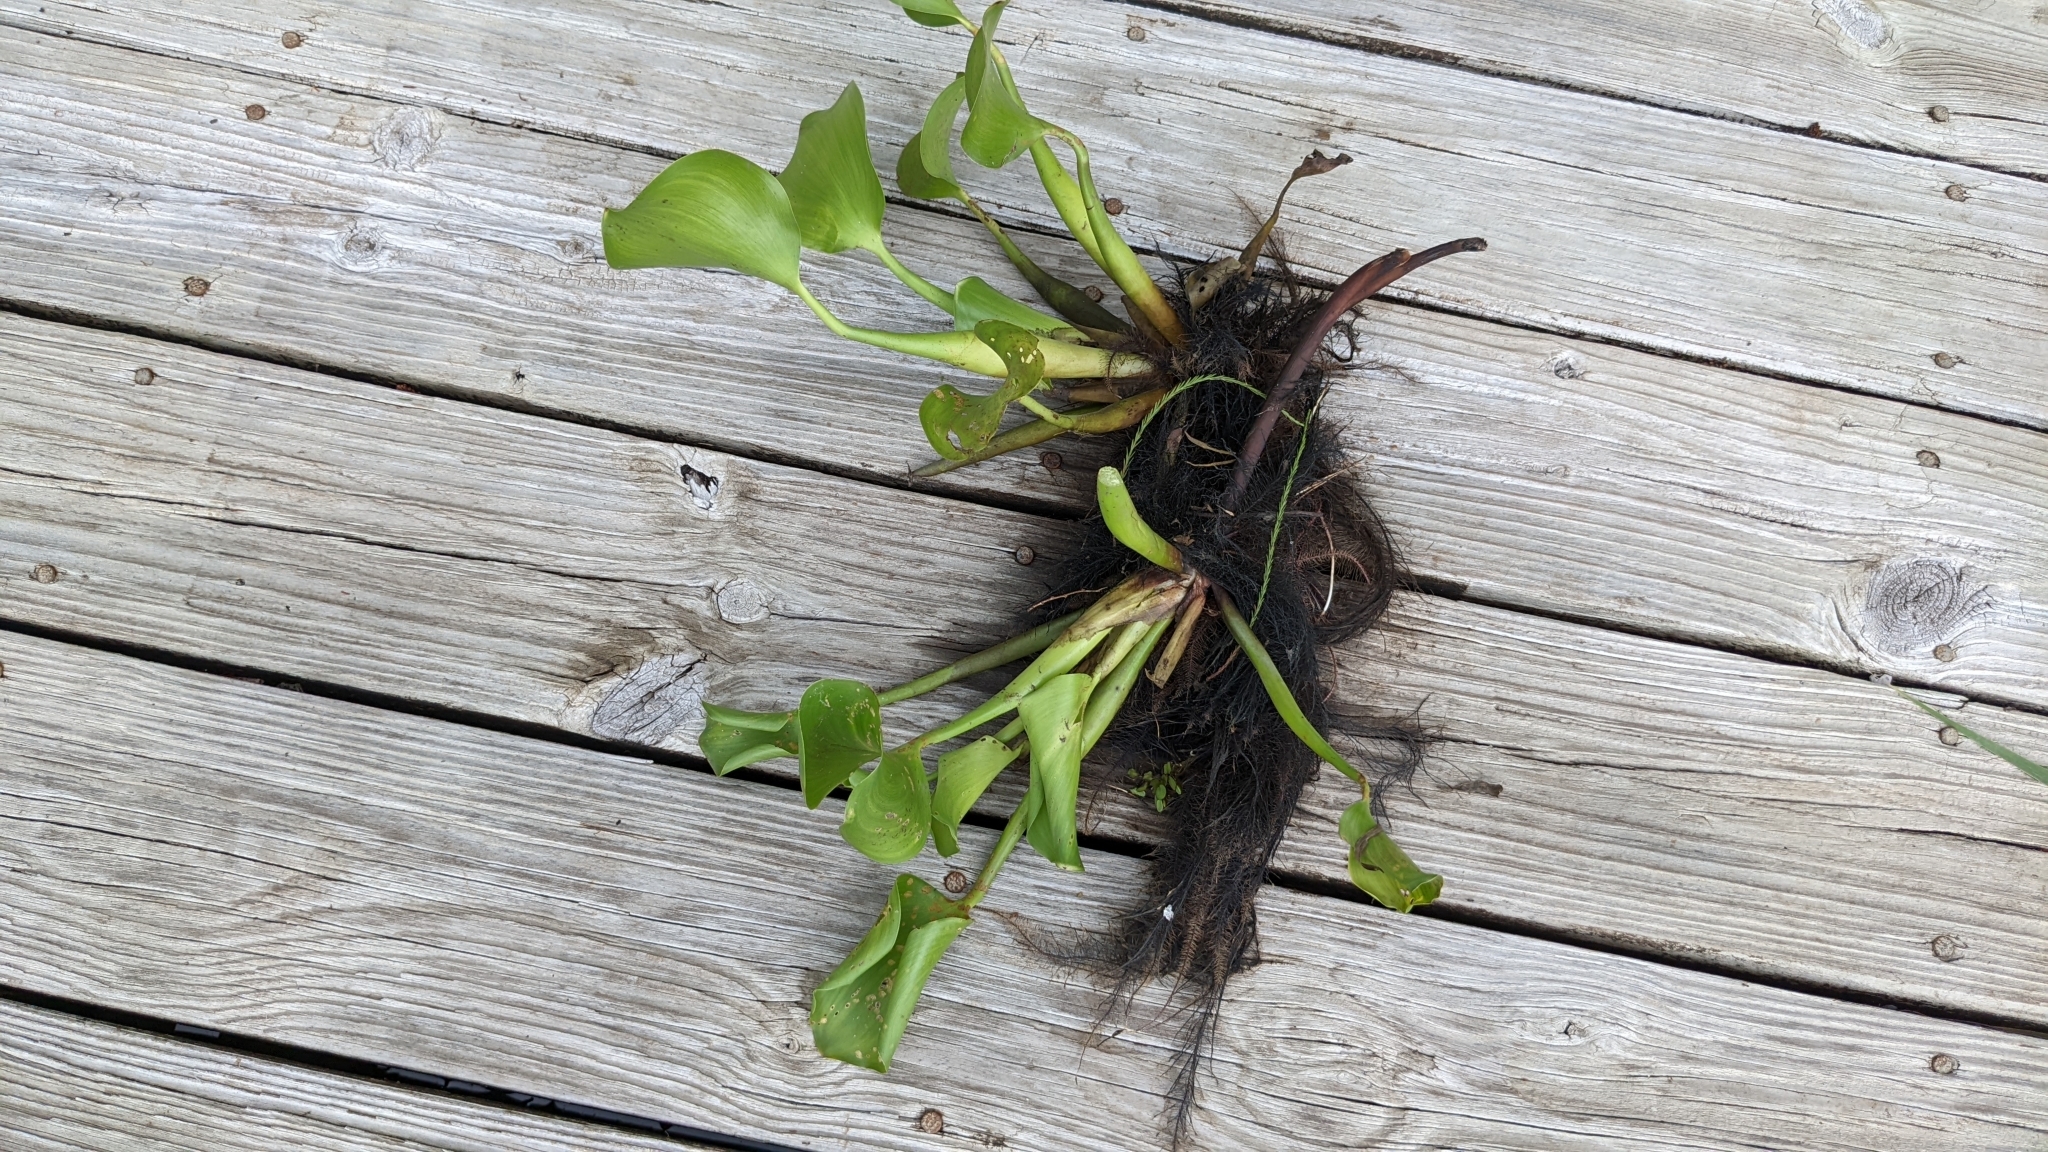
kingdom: Plantae
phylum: Tracheophyta
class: Liliopsida
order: Commelinales
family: Pontederiaceae
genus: Pontederia
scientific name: Pontederia crassipes
